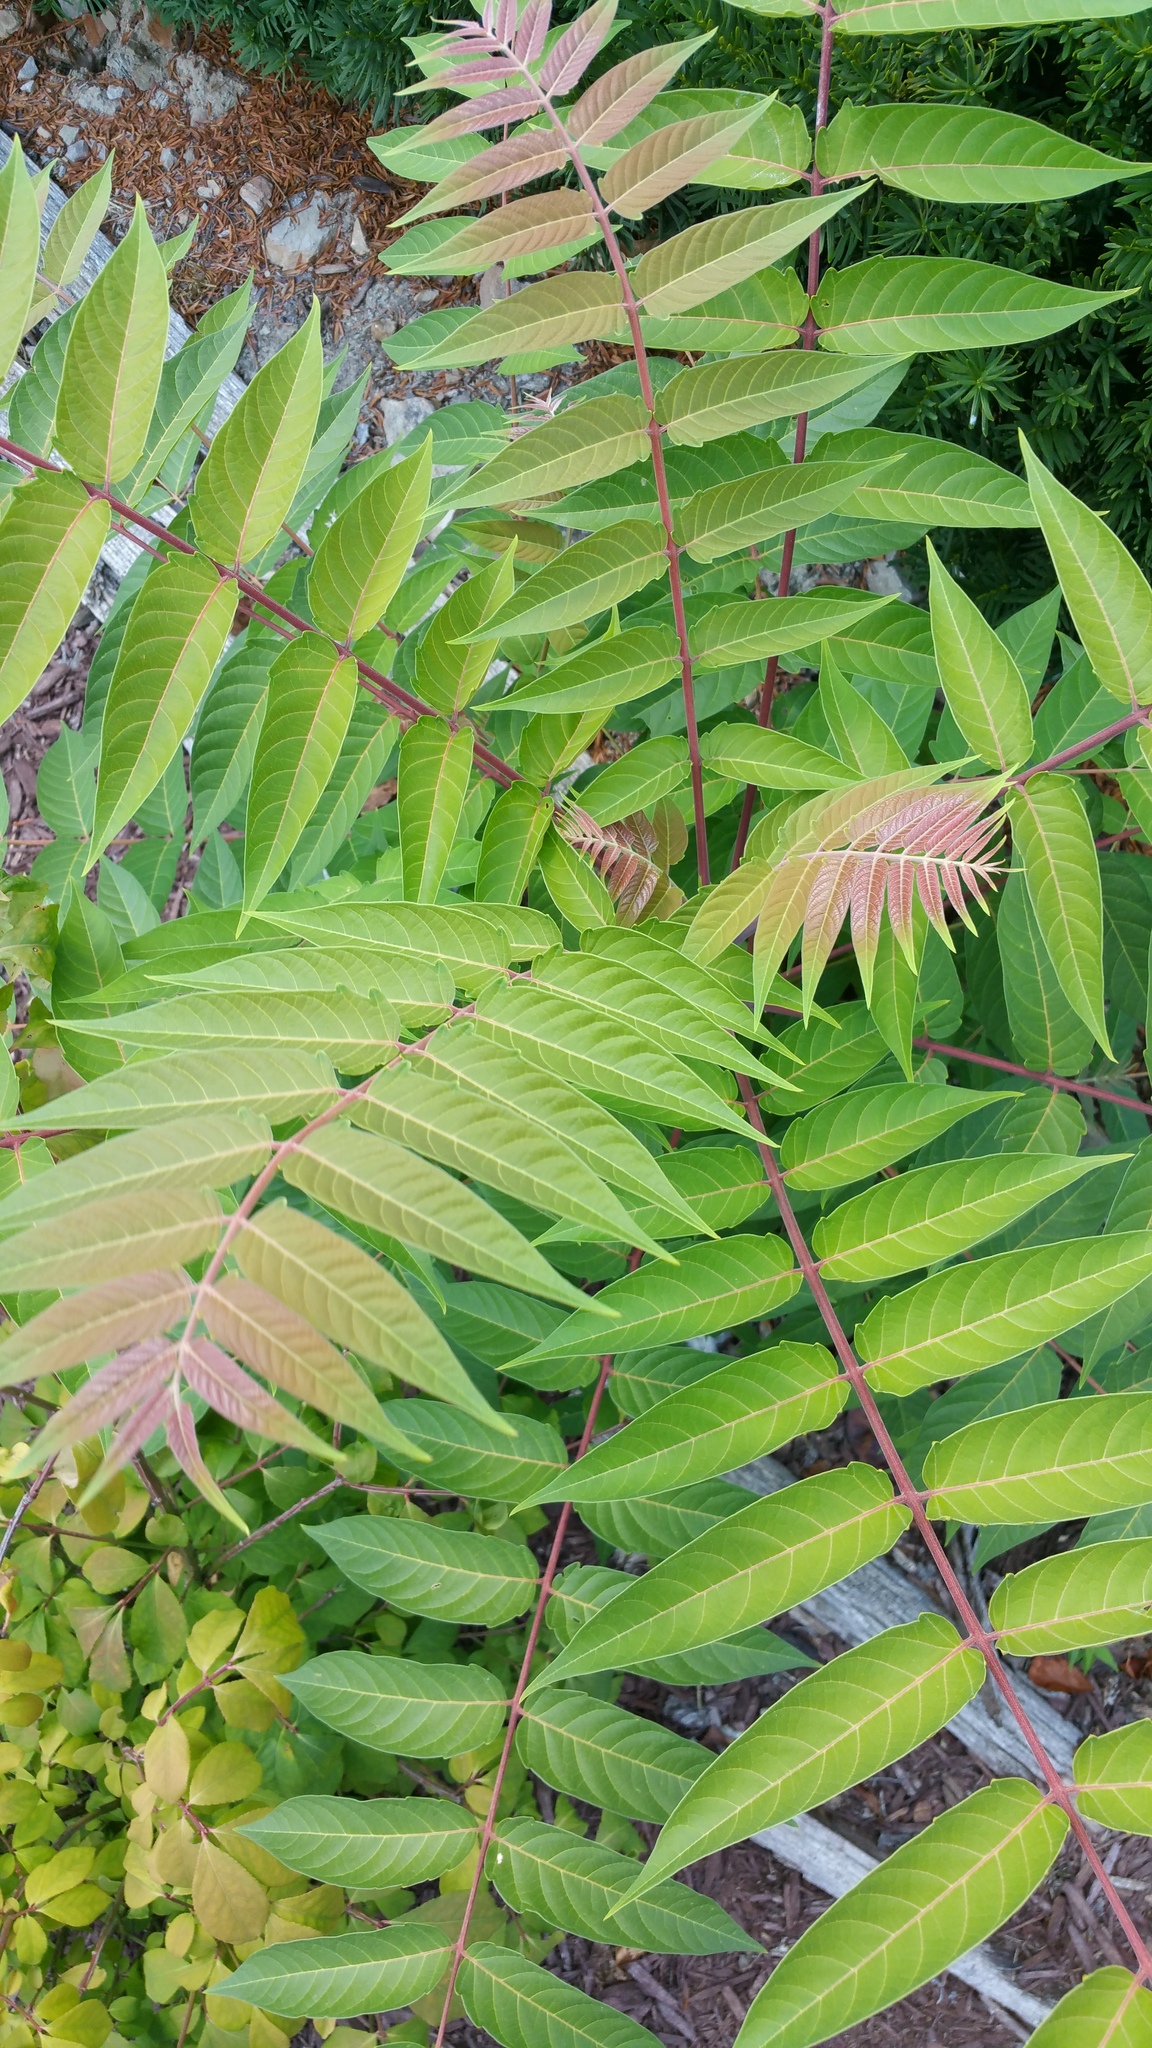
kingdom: Plantae
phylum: Tracheophyta
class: Magnoliopsida
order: Sapindales
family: Simaroubaceae
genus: Ailanthus
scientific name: Ailanthus altissima
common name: Tree-of-heaven
